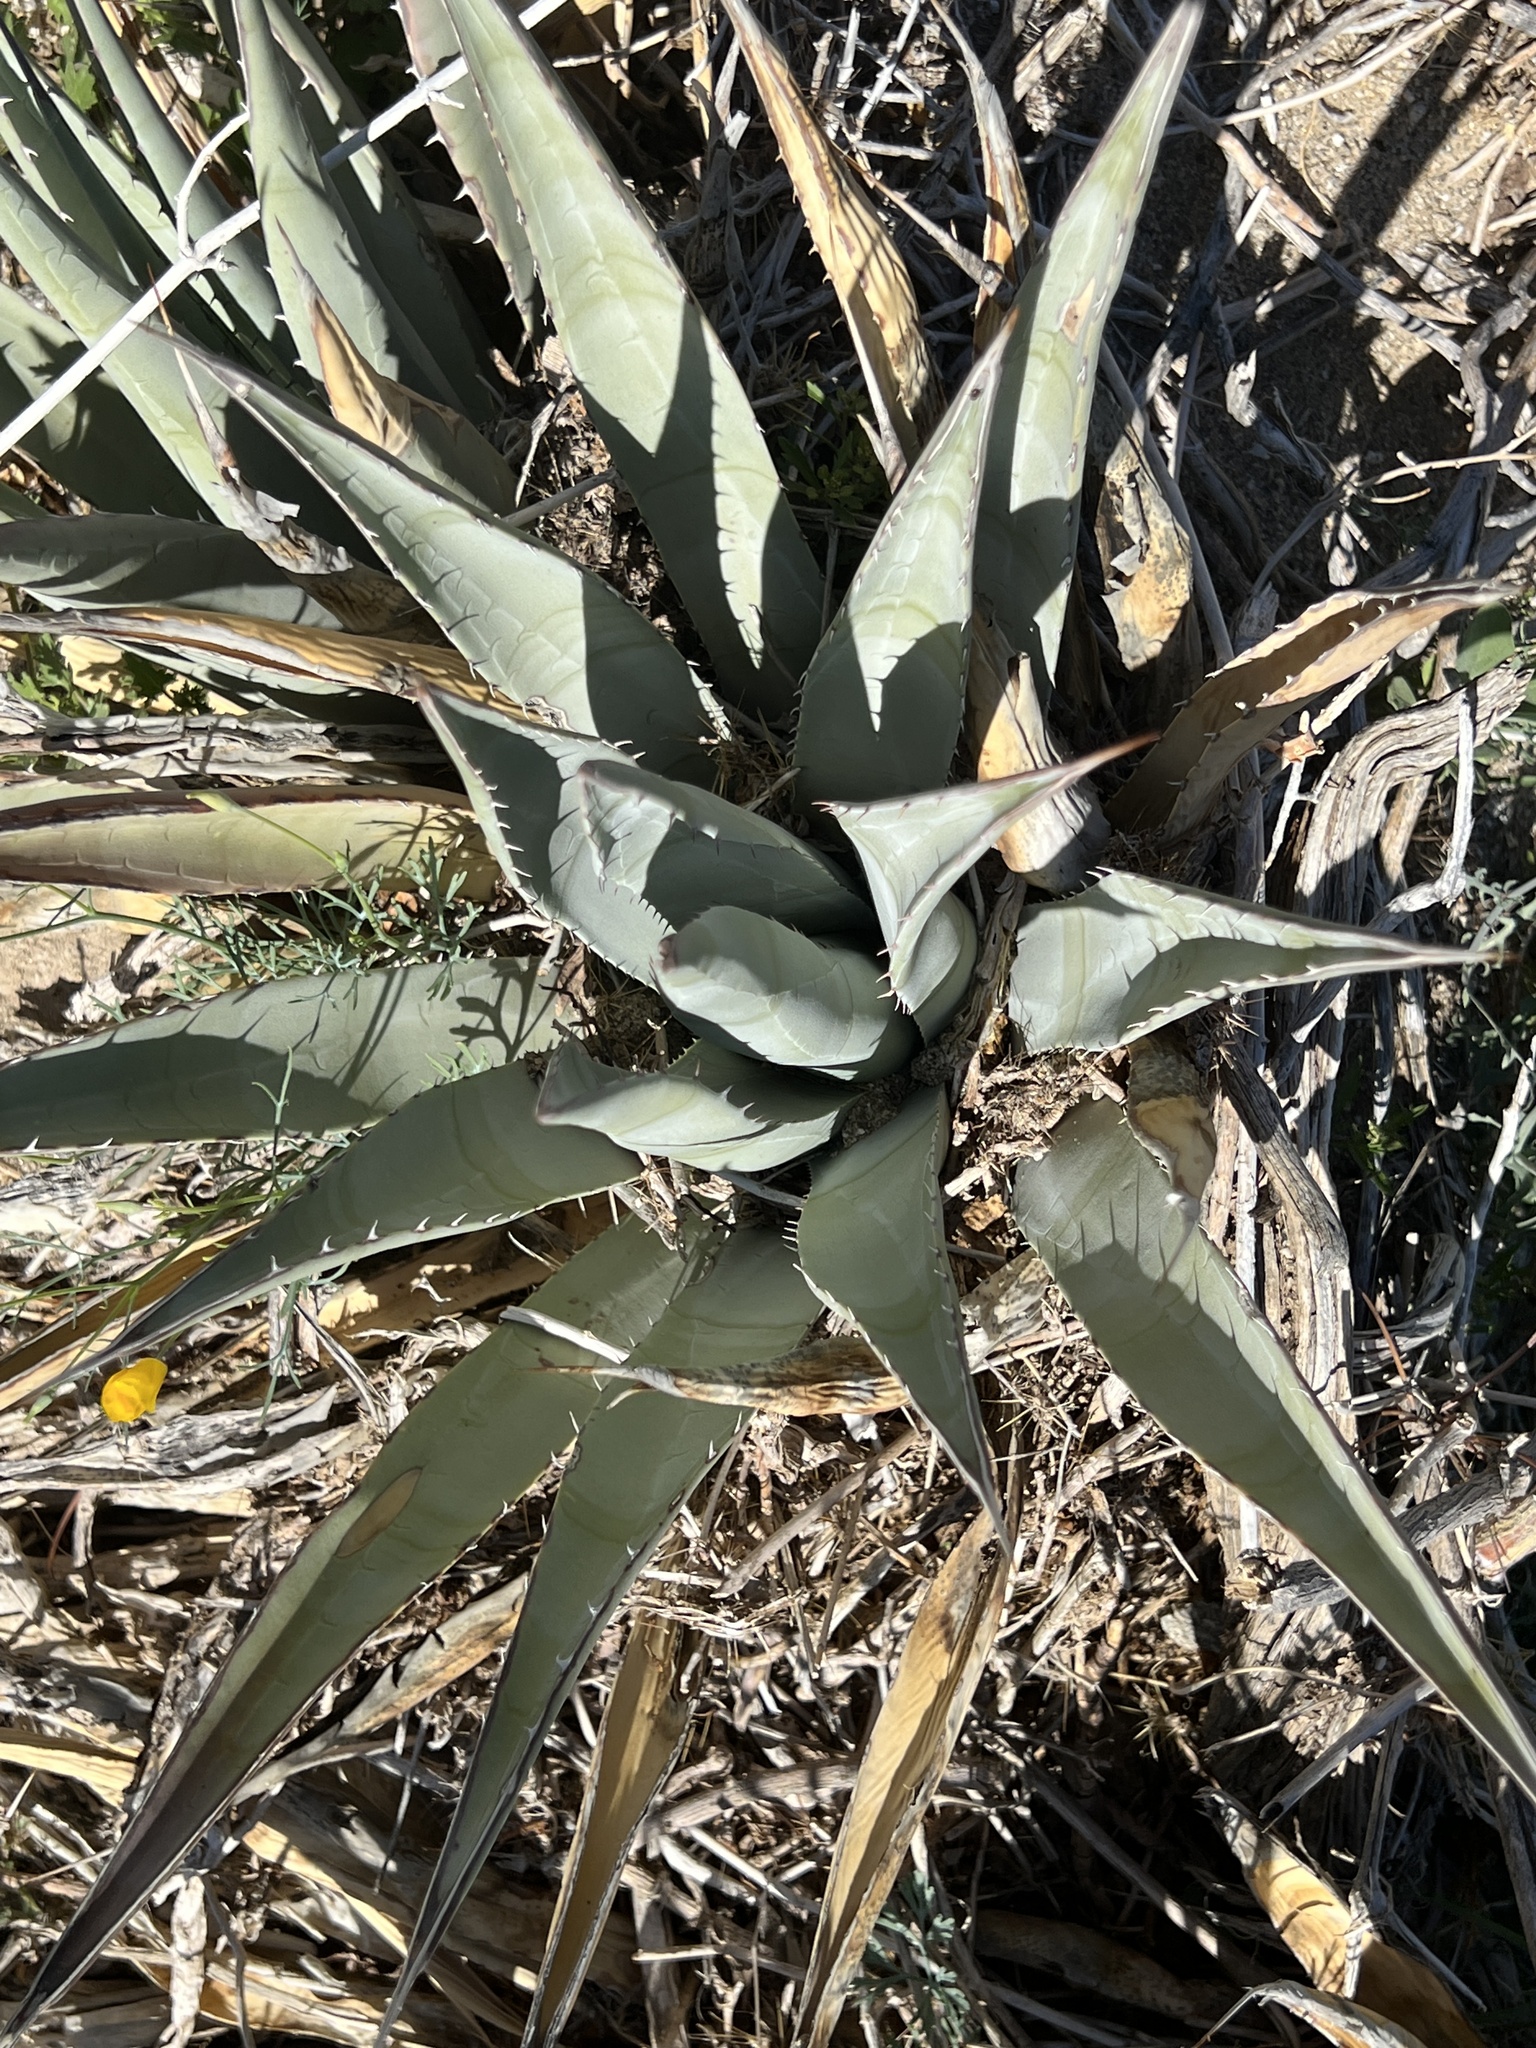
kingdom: Plantae
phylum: Tracheophyta
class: Liliopsida
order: Asparagales
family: Asparagaceae
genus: Agave
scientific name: Agave deserti
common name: Desert agave
